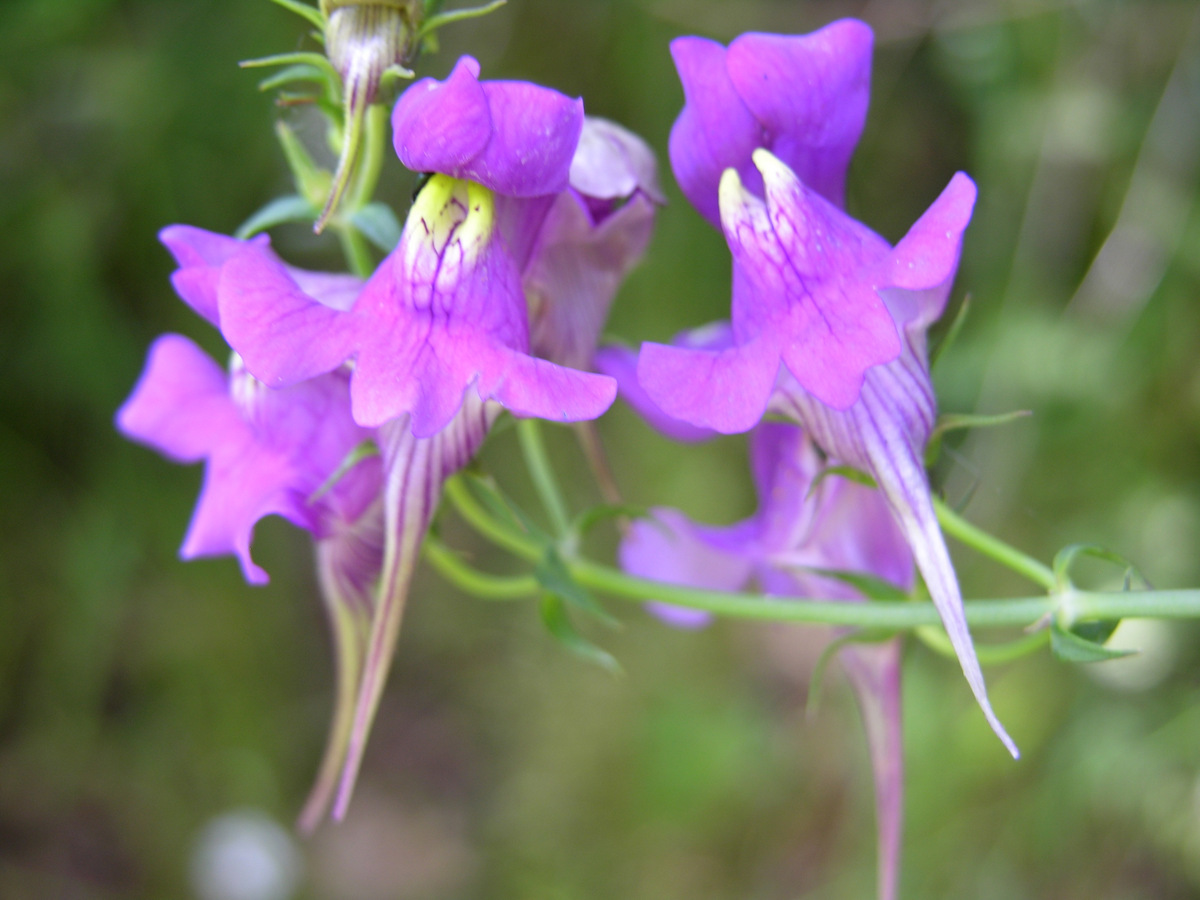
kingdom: Plantae
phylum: Tracheophyta
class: Magnoliopsida
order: Lamiales
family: Plantaginaceae
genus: Linaria
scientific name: Linaria triornithophora
